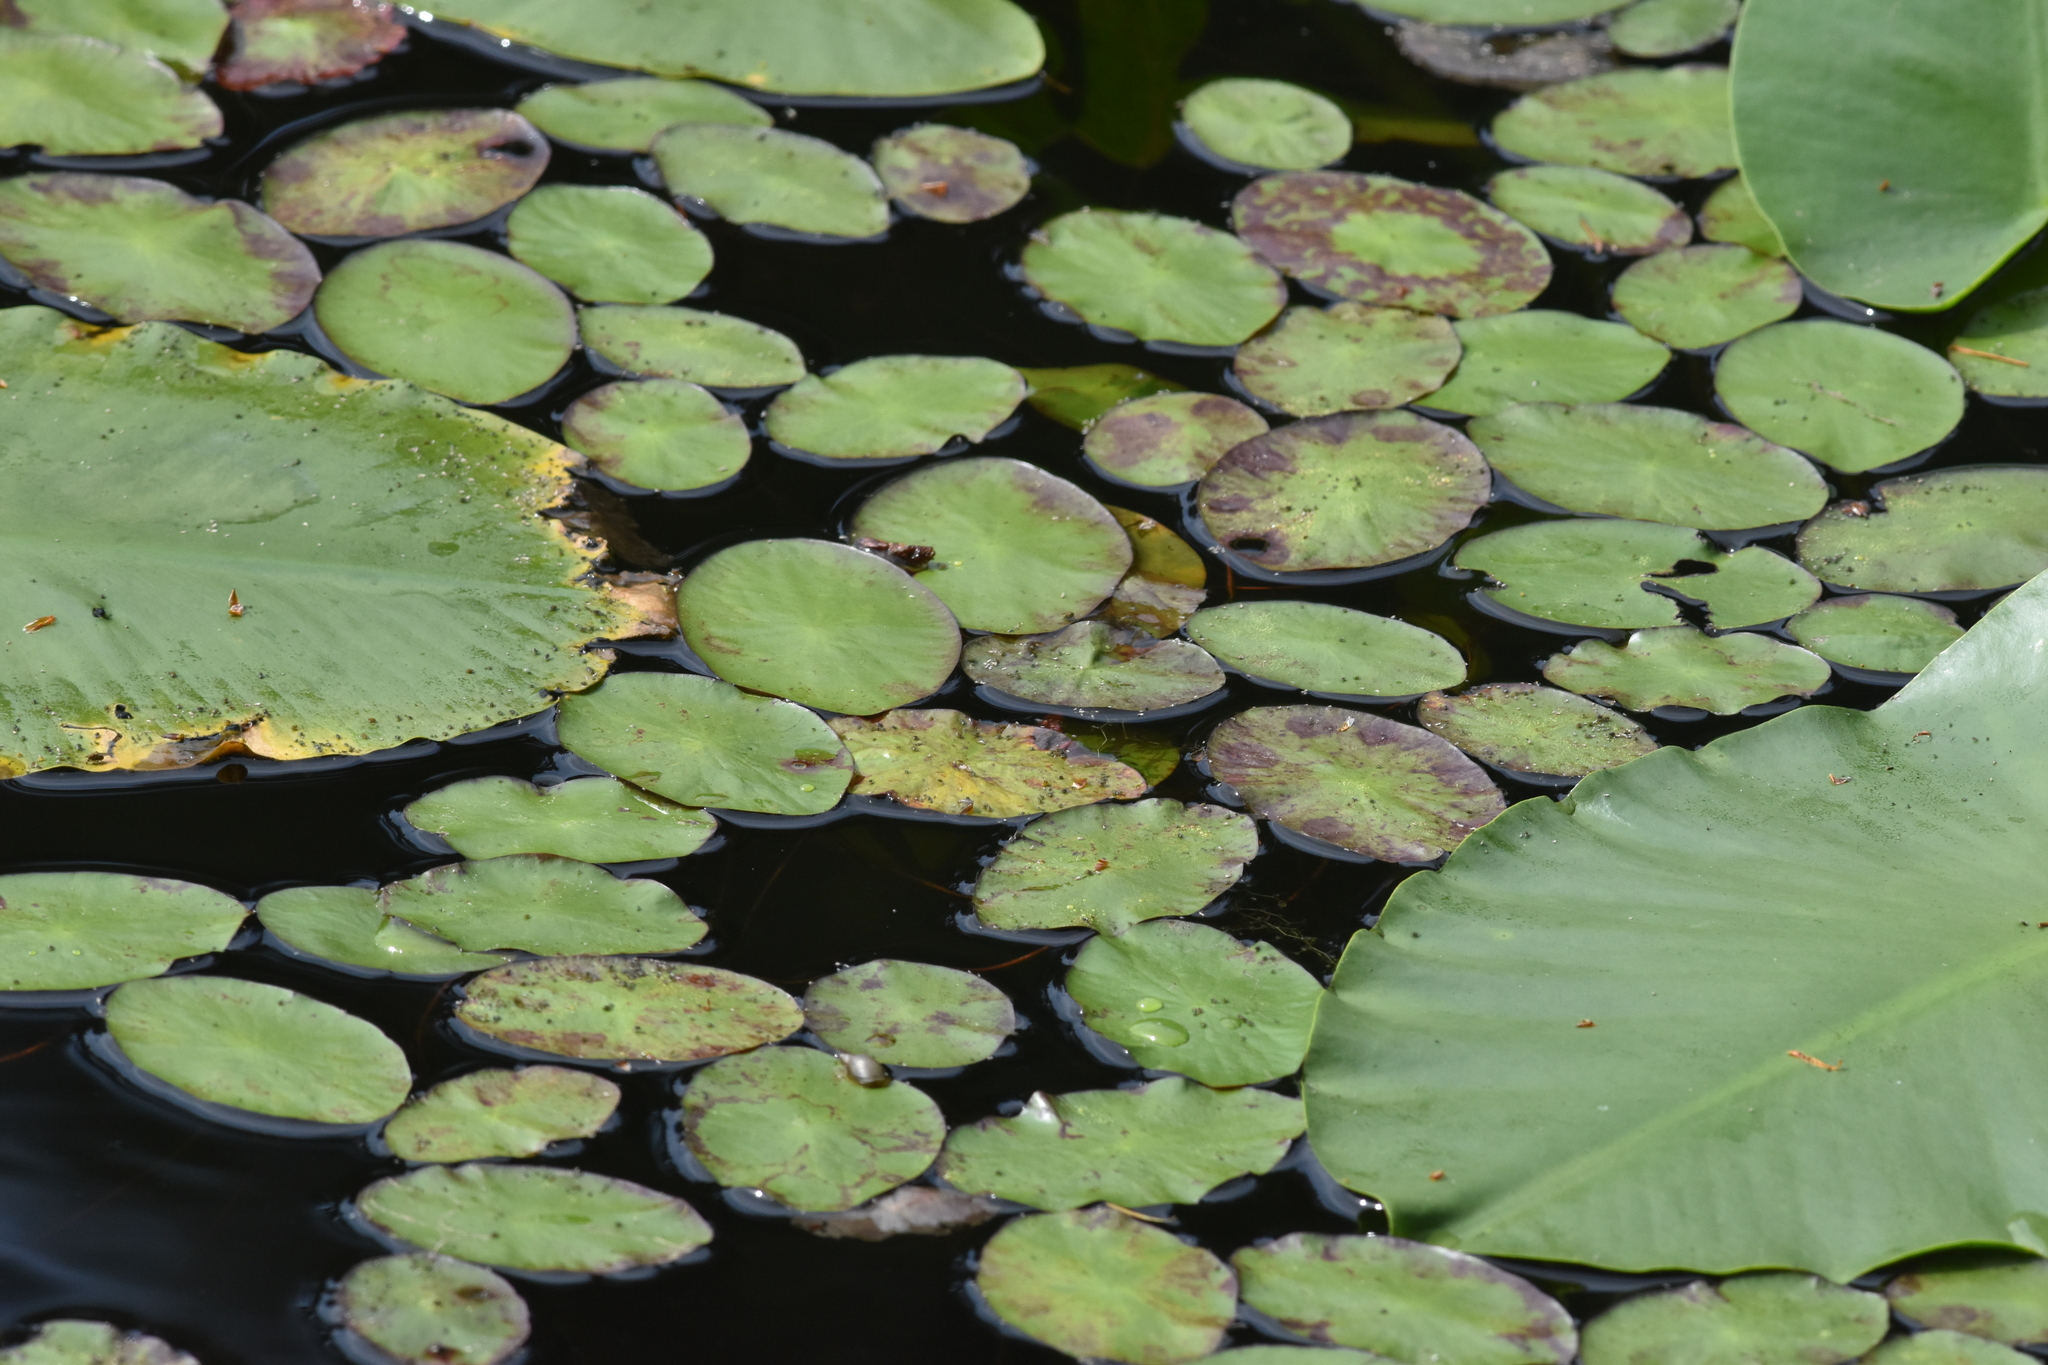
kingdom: Plantae
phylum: Tracheophyta
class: Magnoliopsida
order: Nymphaeales
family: Cabombaceae
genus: Brasenia
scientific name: Brasenia schreberi
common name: Water-shield
